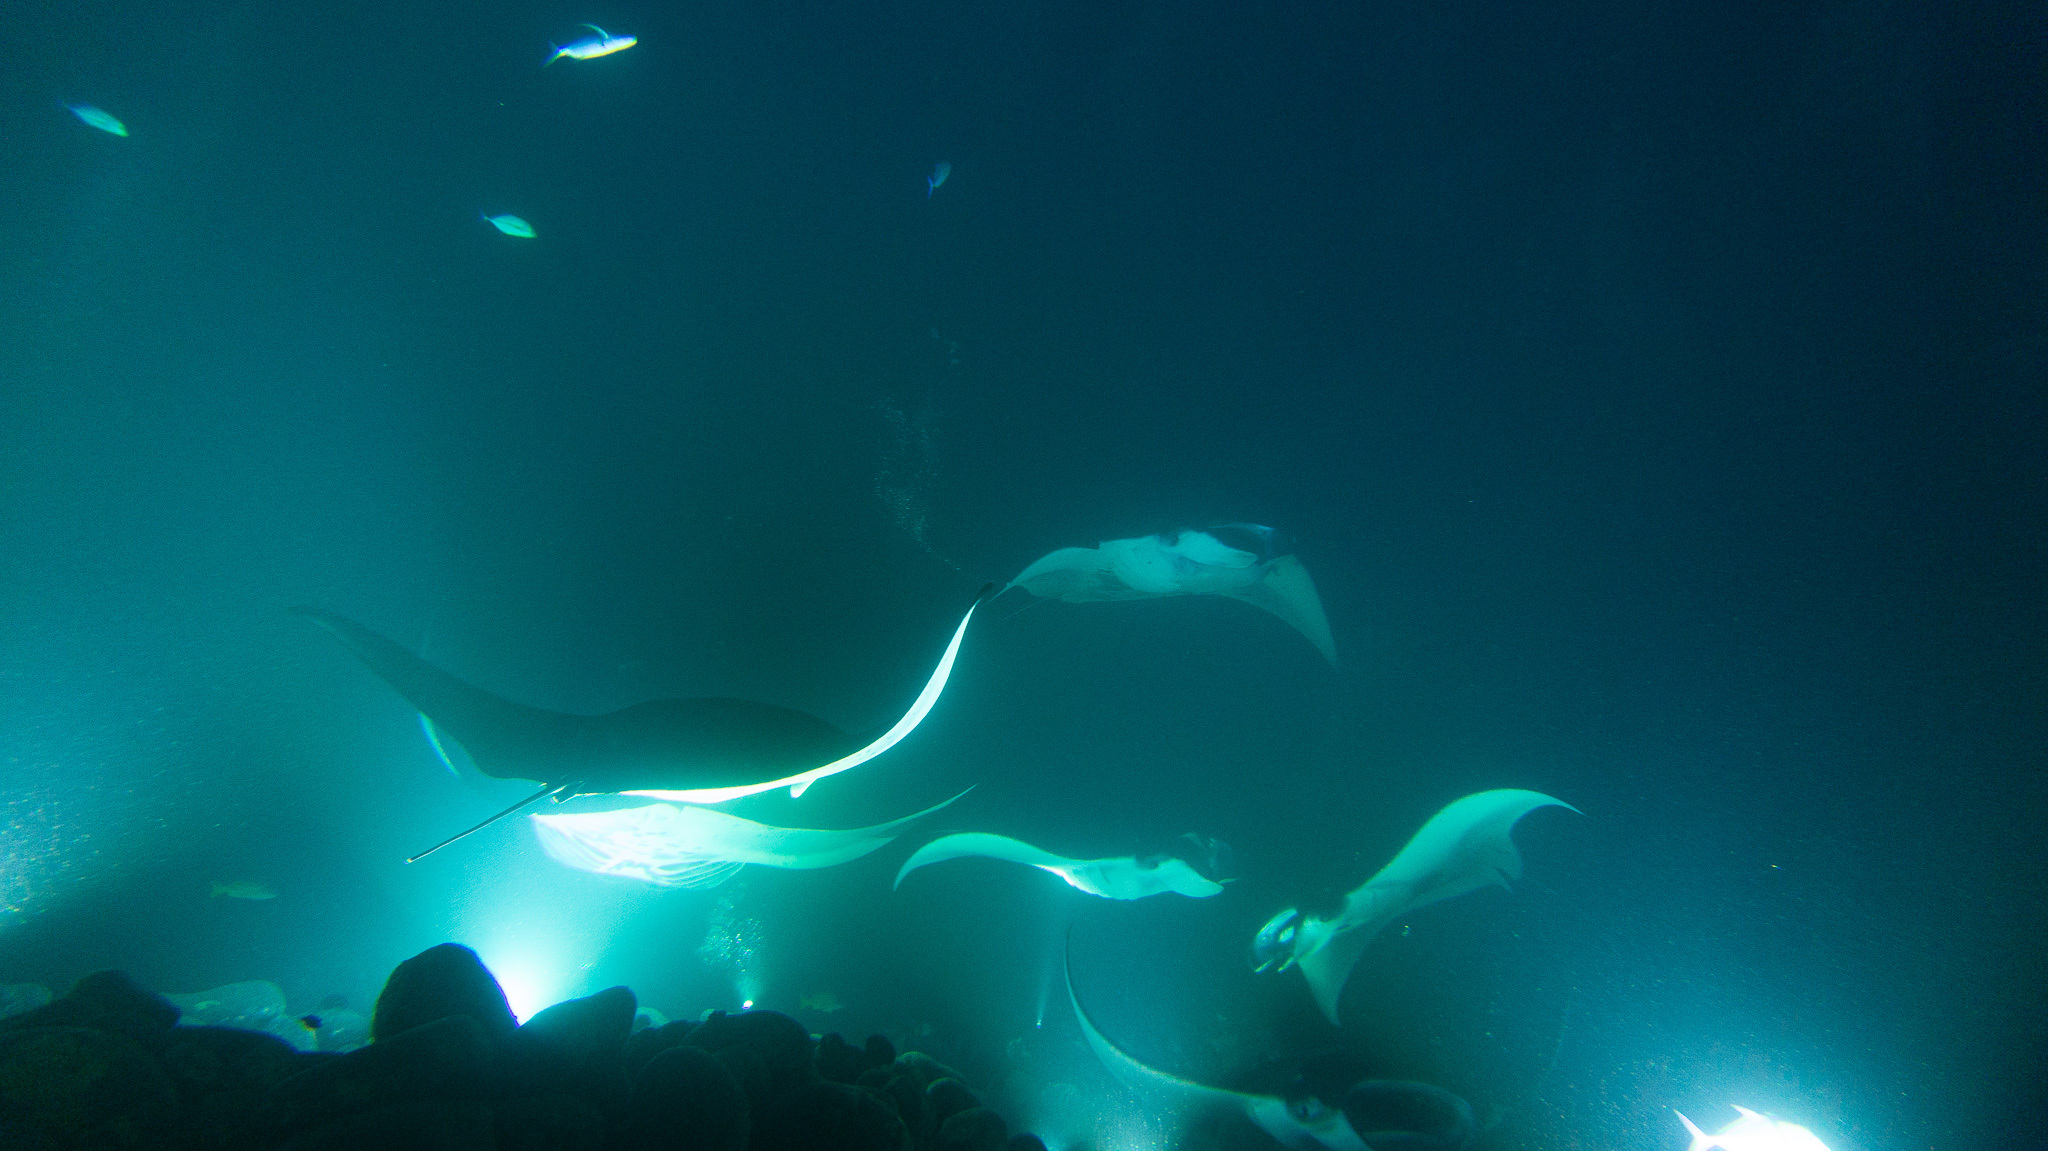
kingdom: Animalia
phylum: Chordata
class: Elasmobranchii
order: Myliobatiformes
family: Myliobatidae
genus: Mobula
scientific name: Mobula alfredi
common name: Reef manta ray
